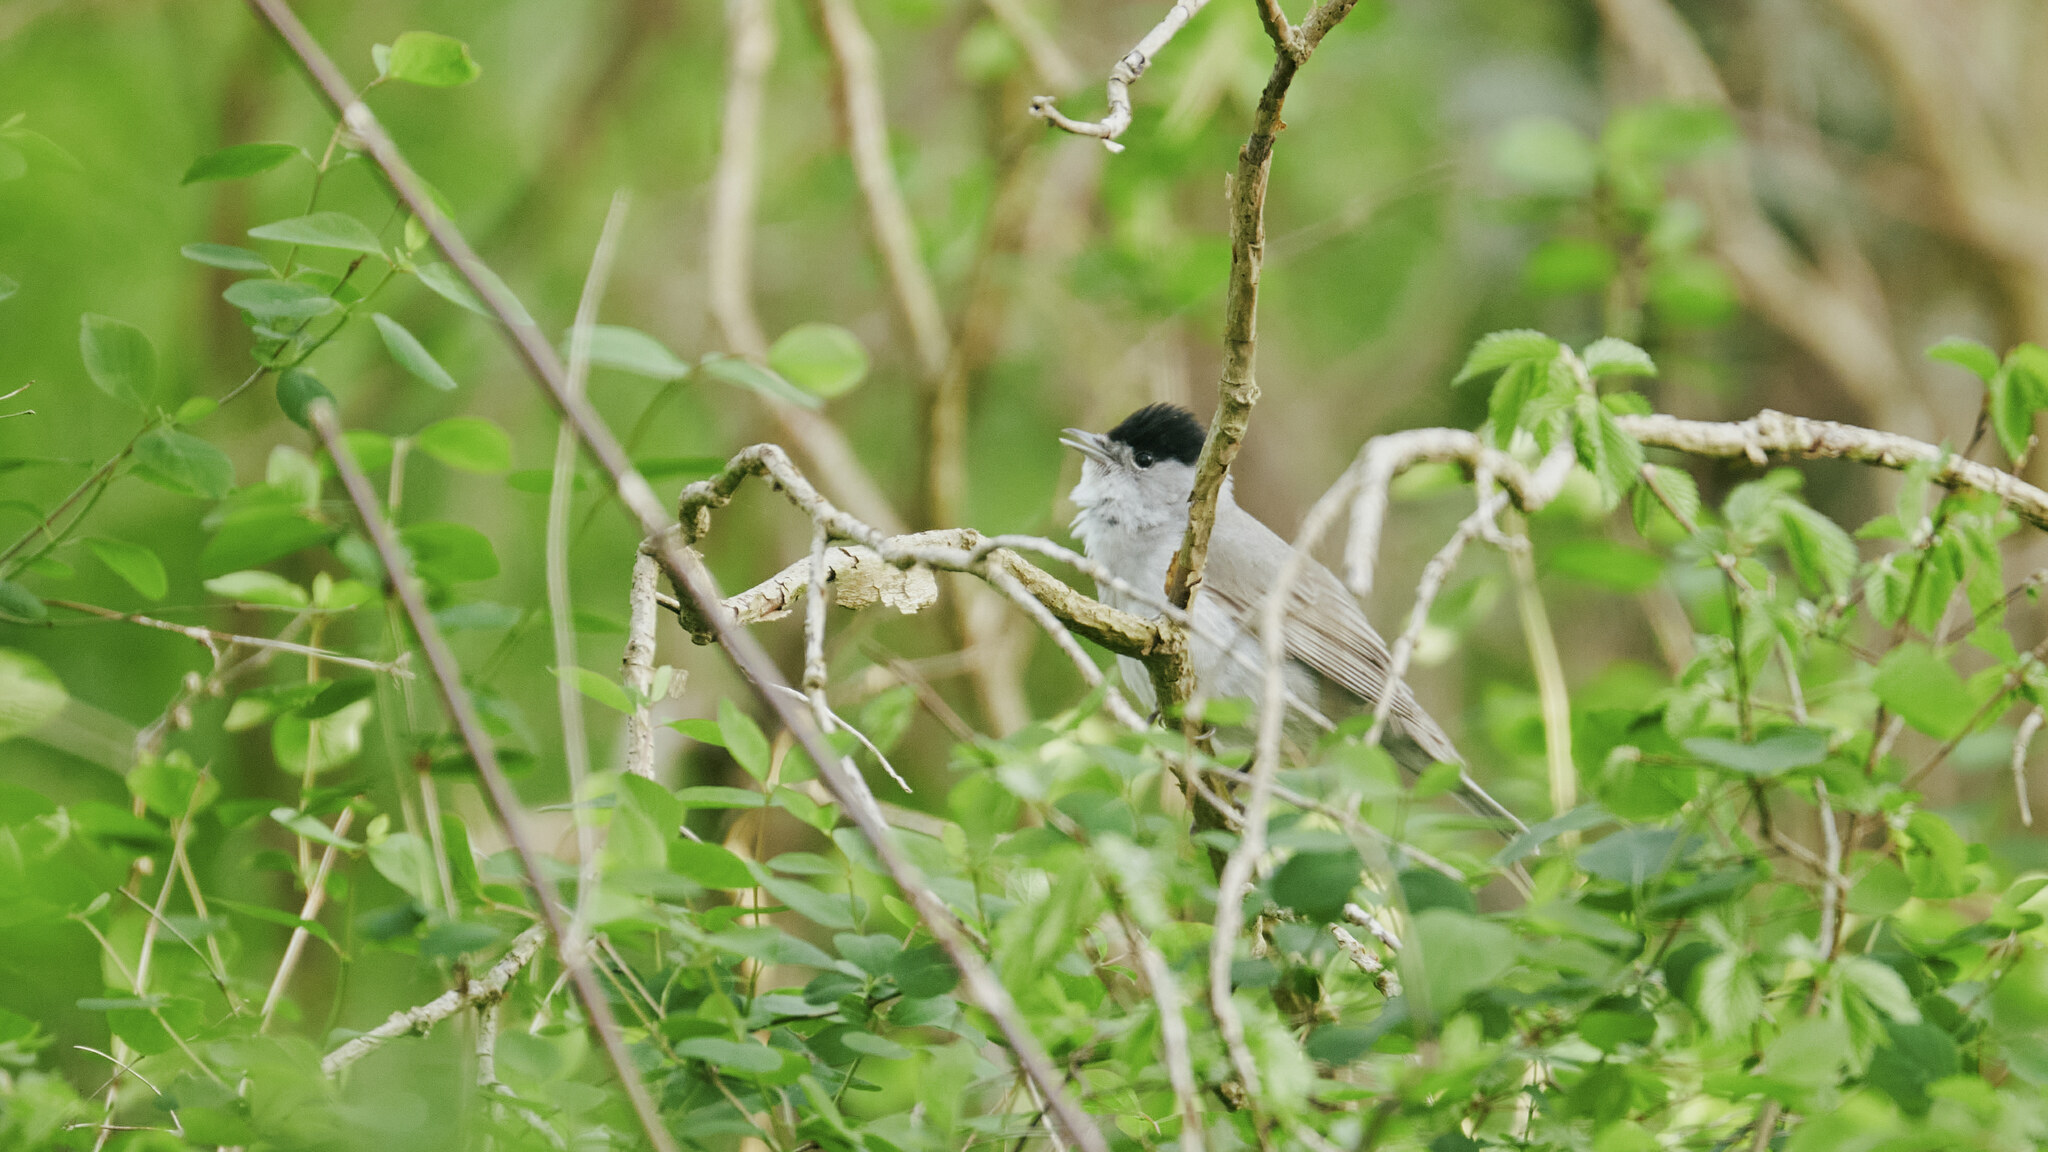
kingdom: Animalia
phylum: Chordata
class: Aves
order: Passeriformes
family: Sylviidae
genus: Sylvia
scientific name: Sylvia atricapilla
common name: Eurasian blackcap
